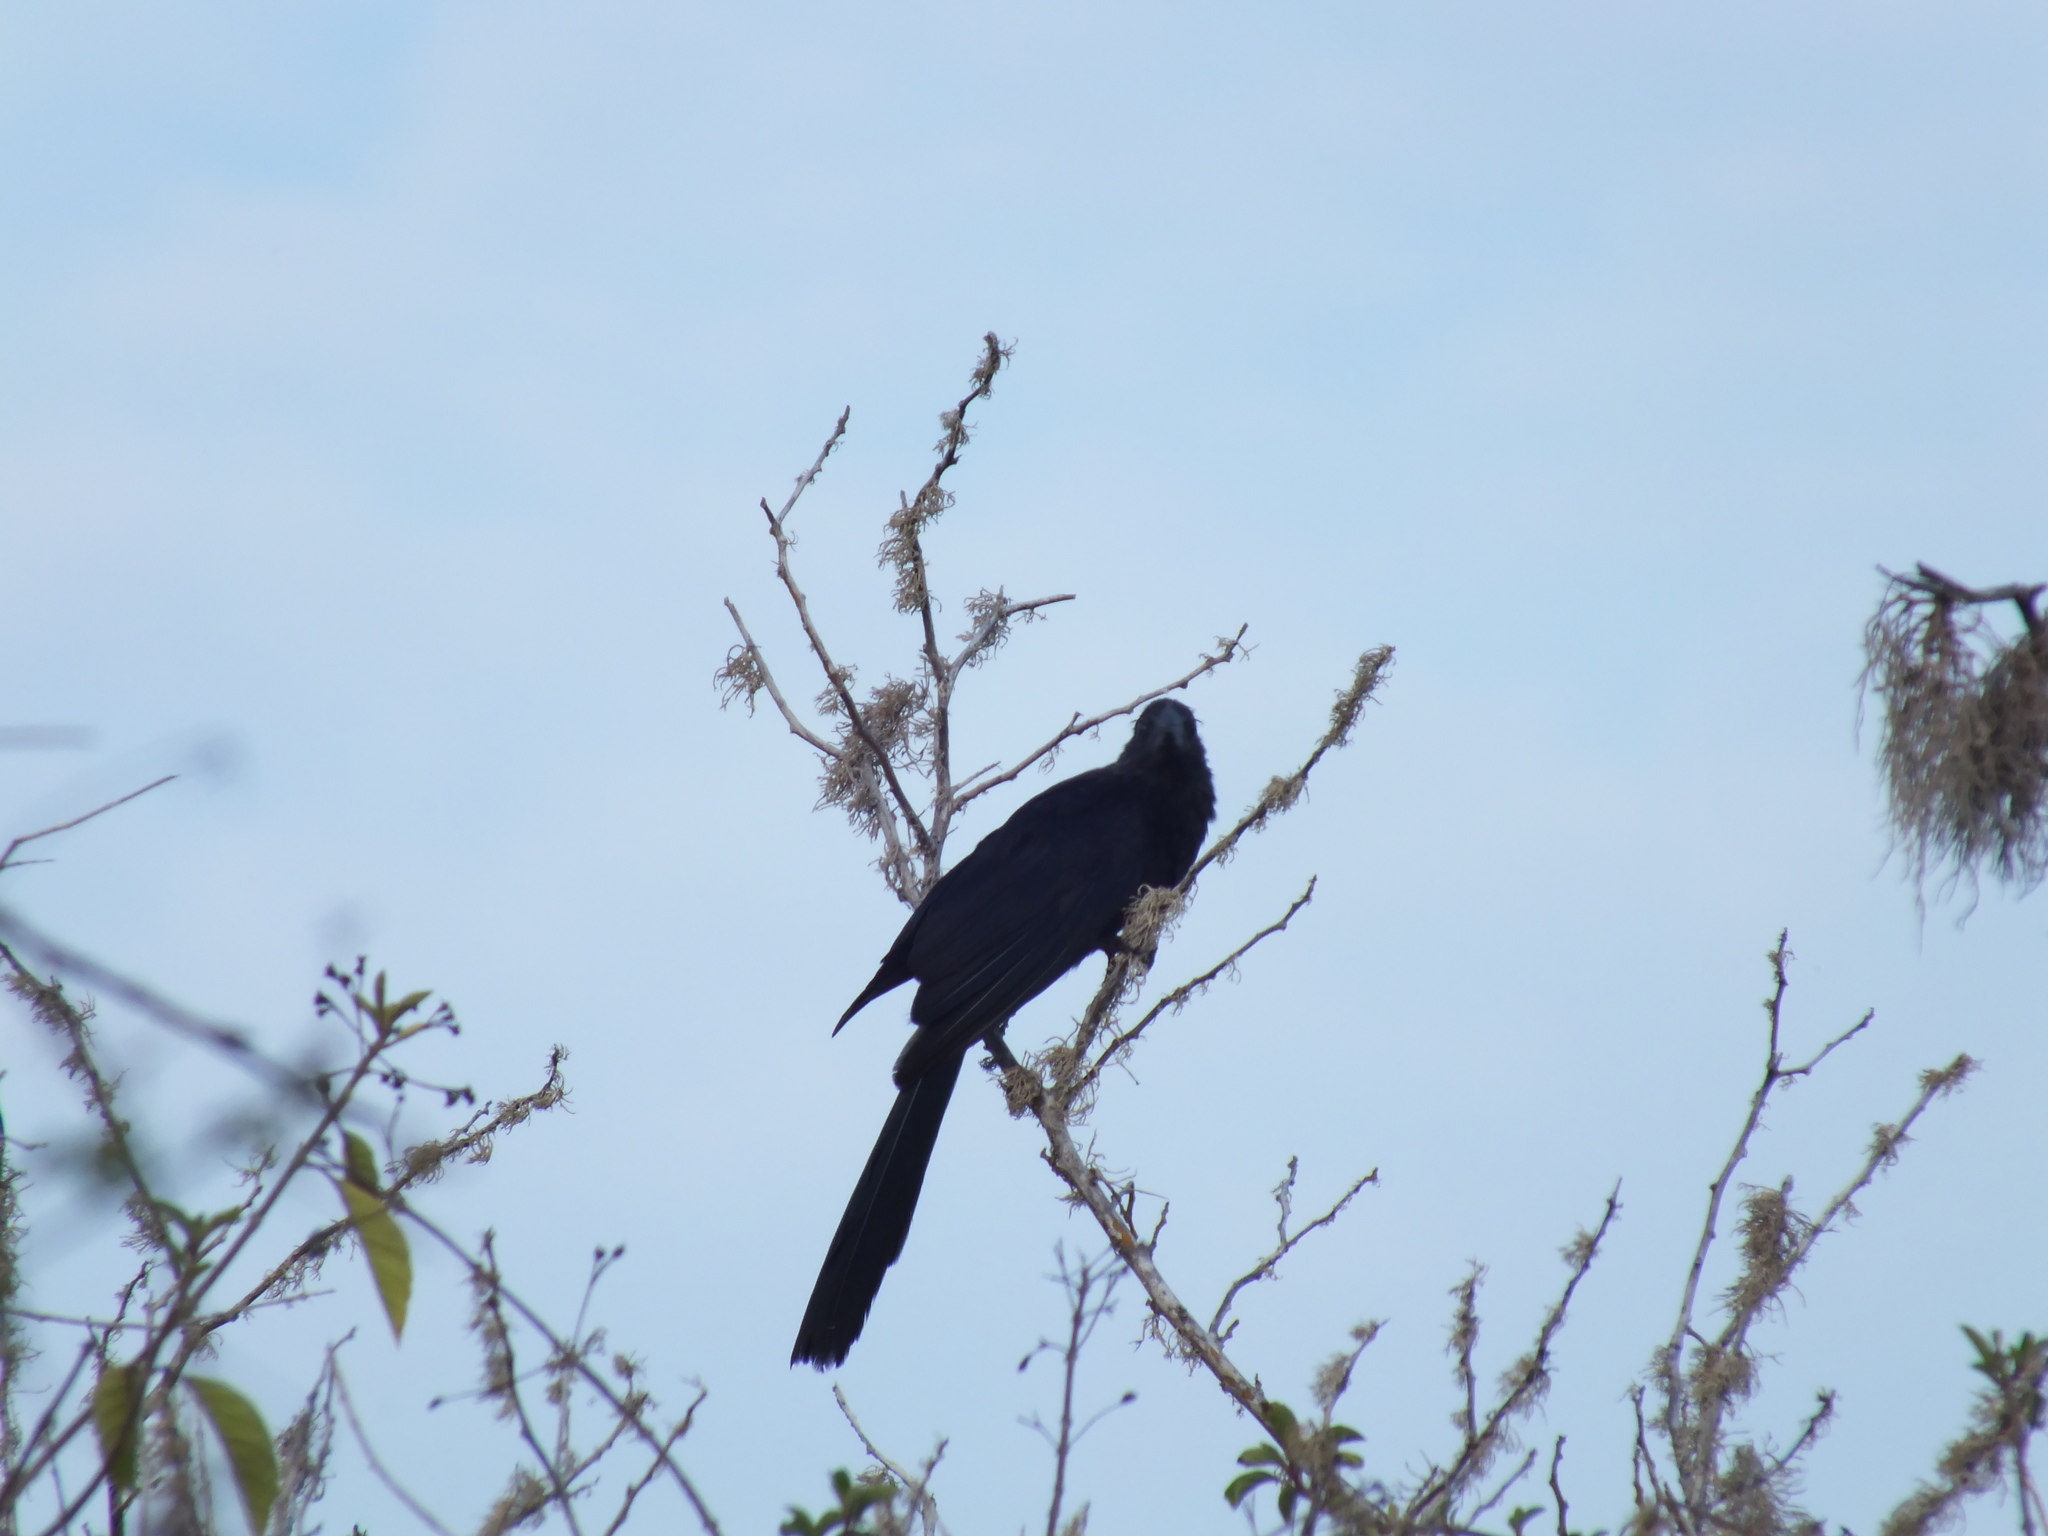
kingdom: Animalia
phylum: Chordata
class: Aves
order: Cuculiformes
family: Cuculidae
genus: Crotophaga
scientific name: Crotophaga ani
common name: Smooth-billed ani
